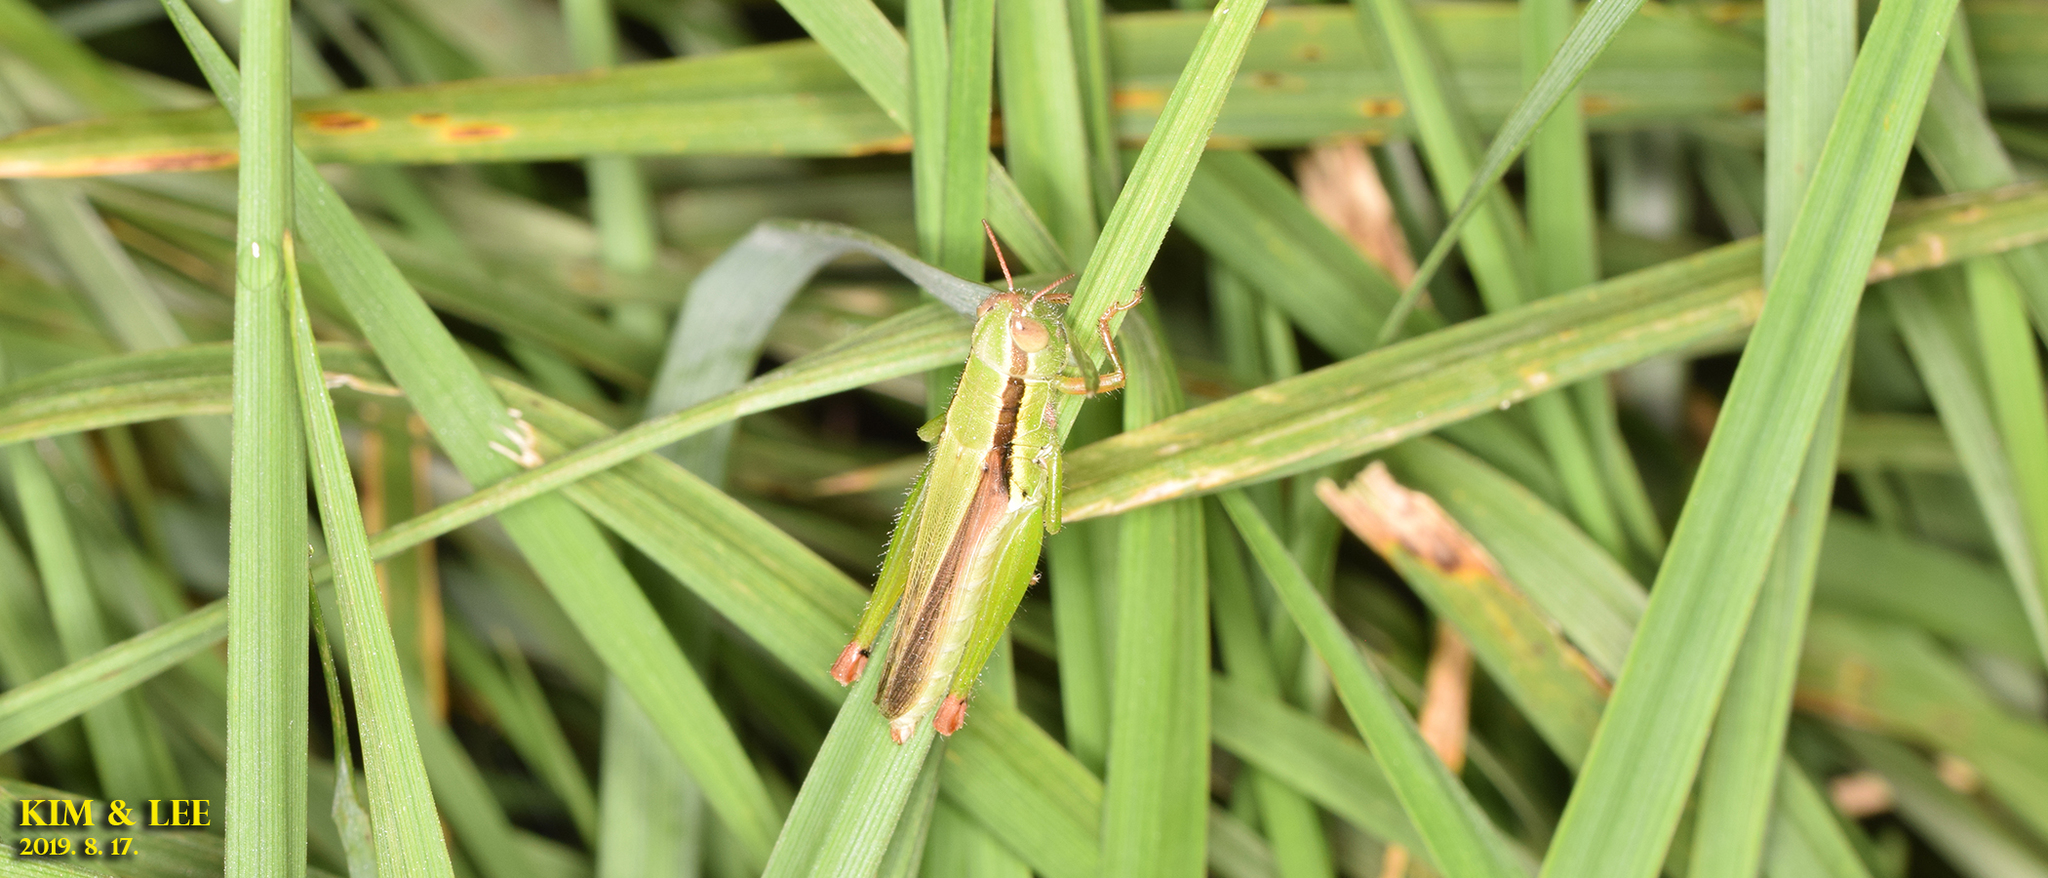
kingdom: Animalia
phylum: Arthropoda
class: Insecta
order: Orthoptera
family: Acrididae
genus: Oxya
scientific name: Oxya sinuosa
